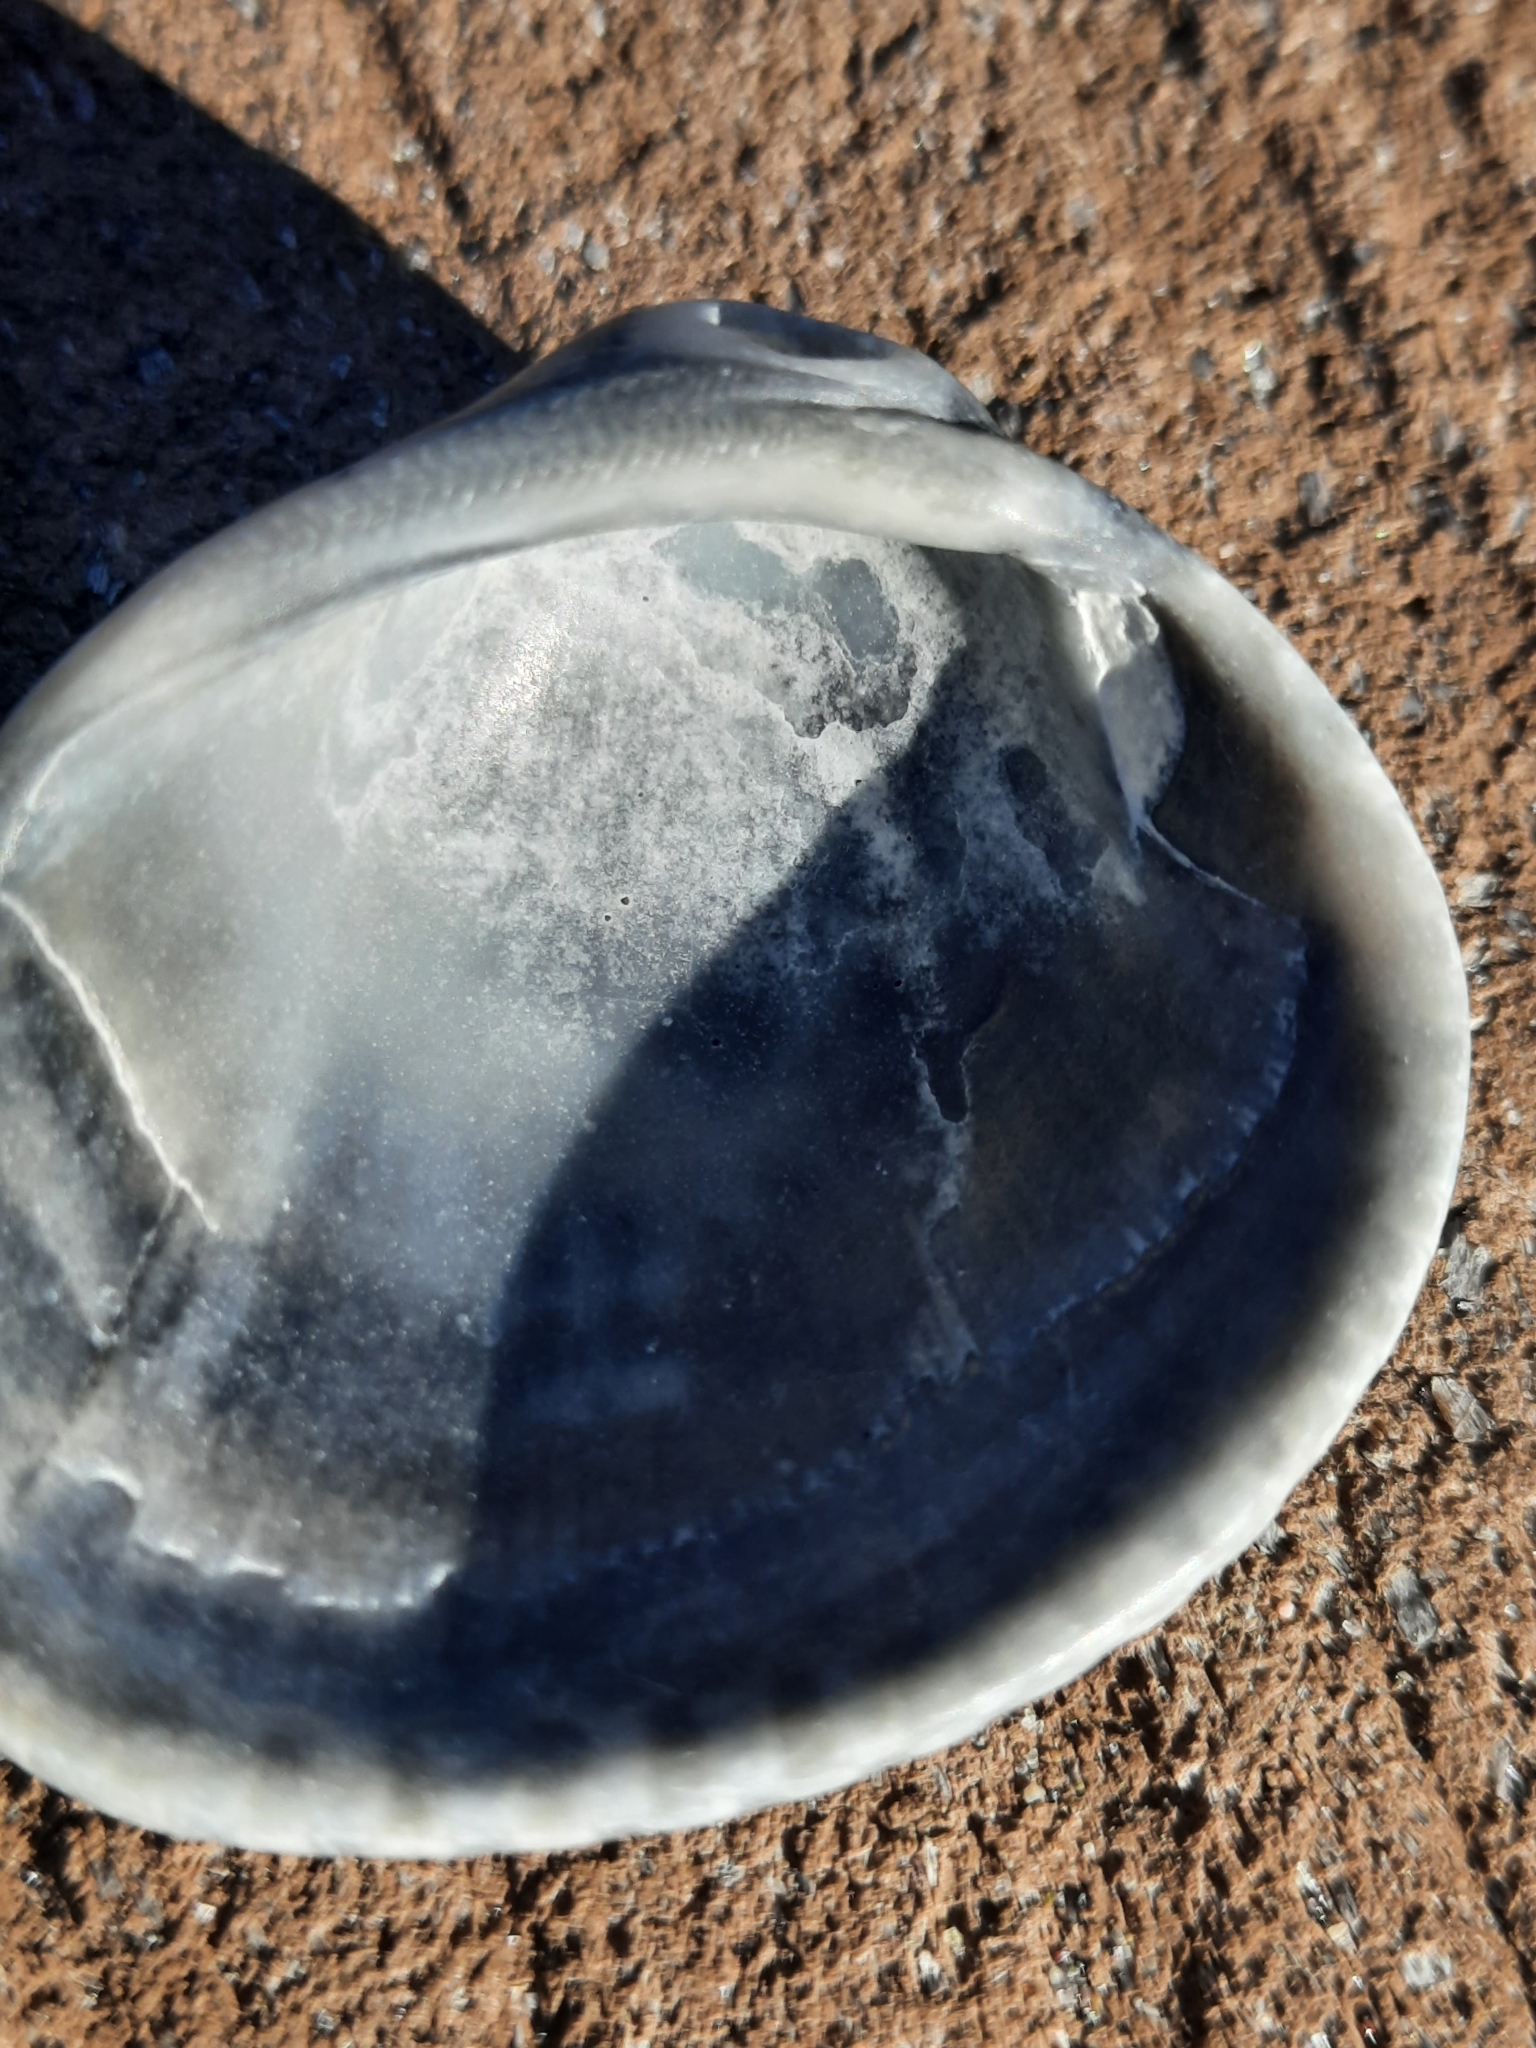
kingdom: Animalia
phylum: Mollusca
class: Bivalvia
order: Arcida
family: Arcidae
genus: Lunarca
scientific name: Lunarca ovalis
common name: Blood ark
